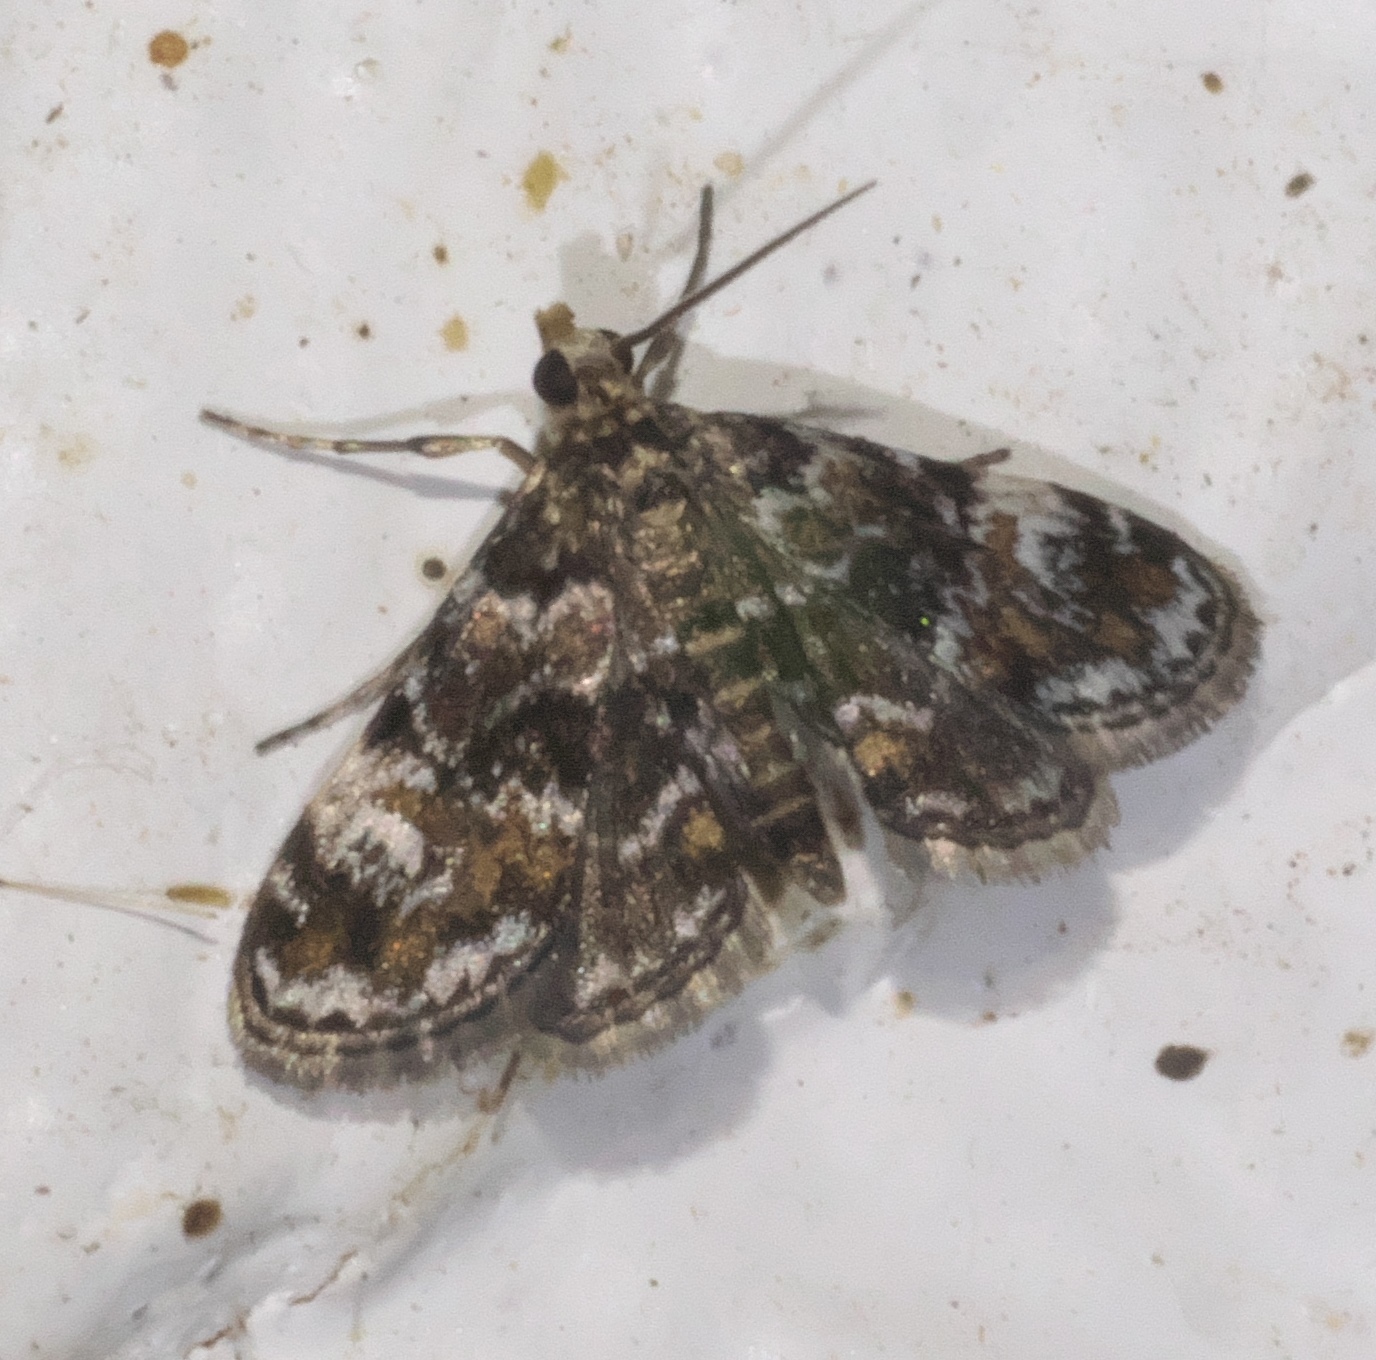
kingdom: Animalia
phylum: Arthropoda
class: Insecta
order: Lepidoptera
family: Crambidae
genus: Elophila
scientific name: Elophila obliteralis
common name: Waterlily leafcutter moth
